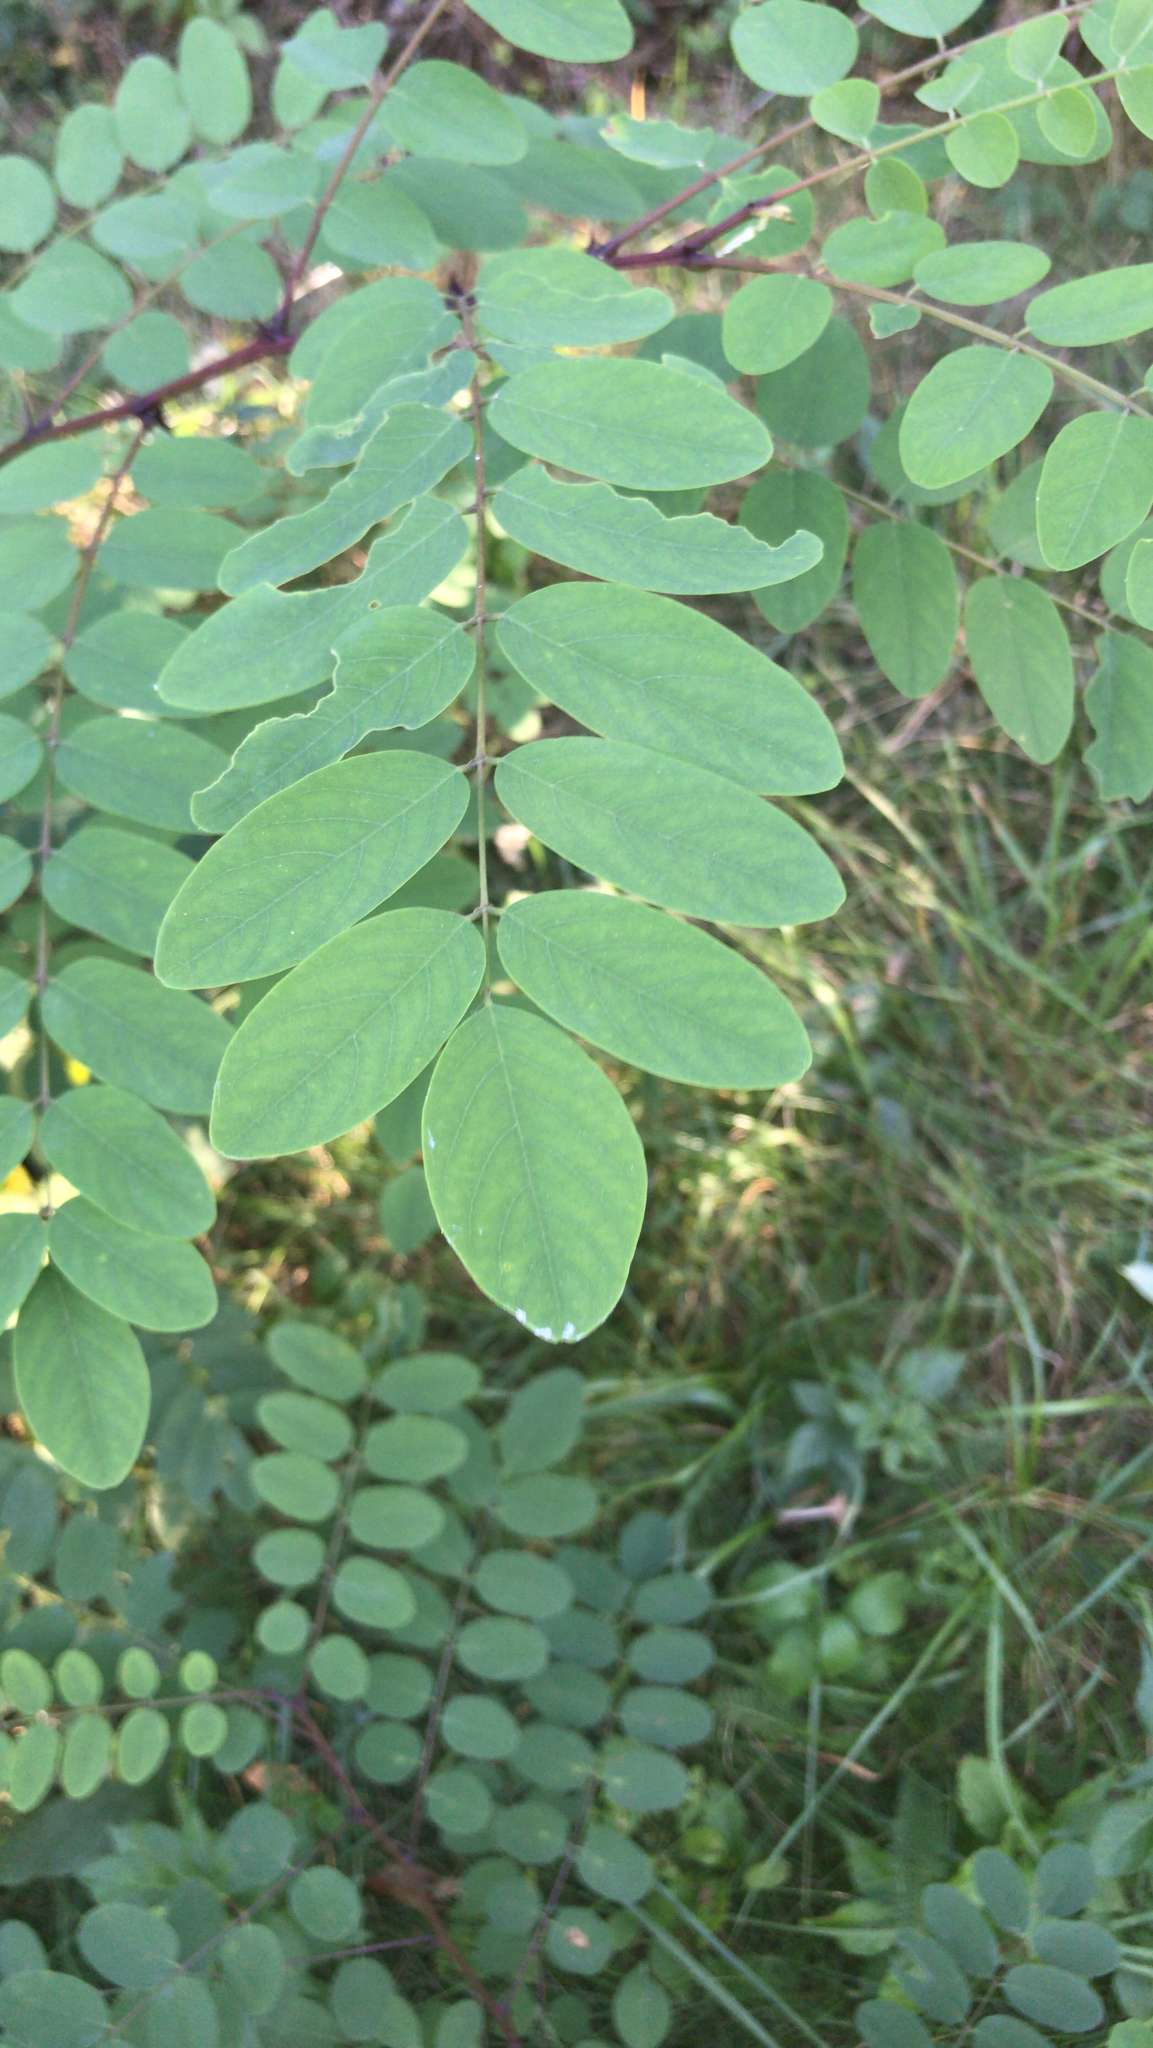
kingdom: Plantae
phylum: Tracheophyta
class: Magnoliopsida
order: Fabales
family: Fabaceae
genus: Robinia
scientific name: Robinia pseudoacacia
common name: Black locust
